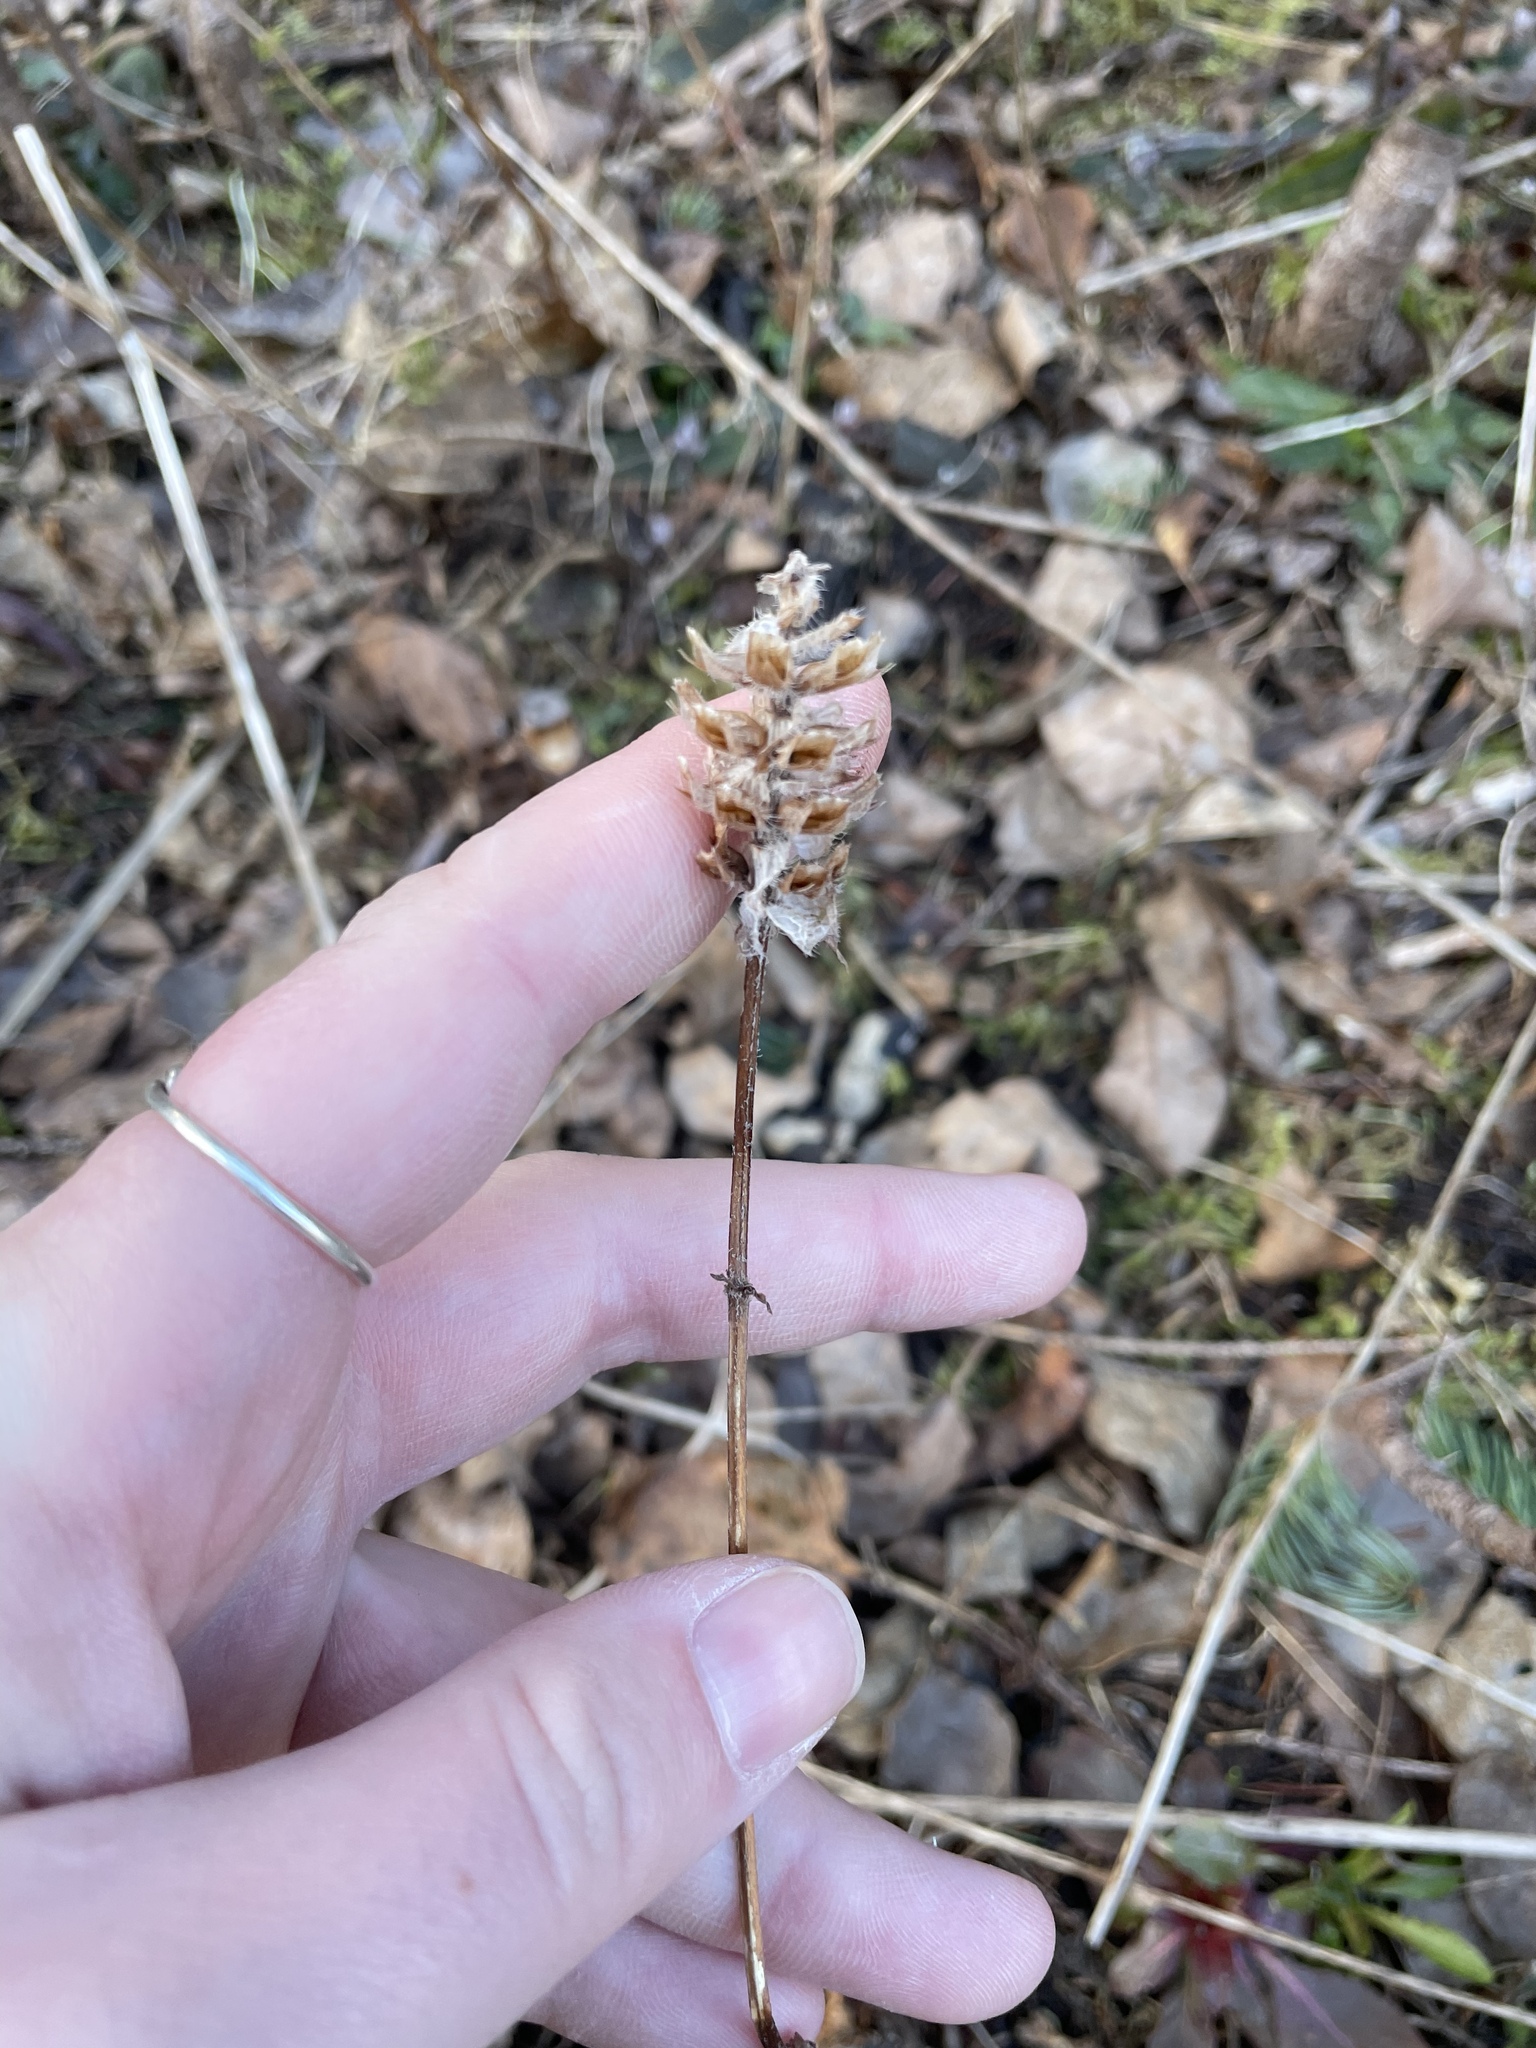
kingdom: Plantae
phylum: Tracheophyta
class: Magnoliopsida
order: Lamiales
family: Lamiaceae
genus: Prunella
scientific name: Prunella vulgaris
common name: Heal-all
